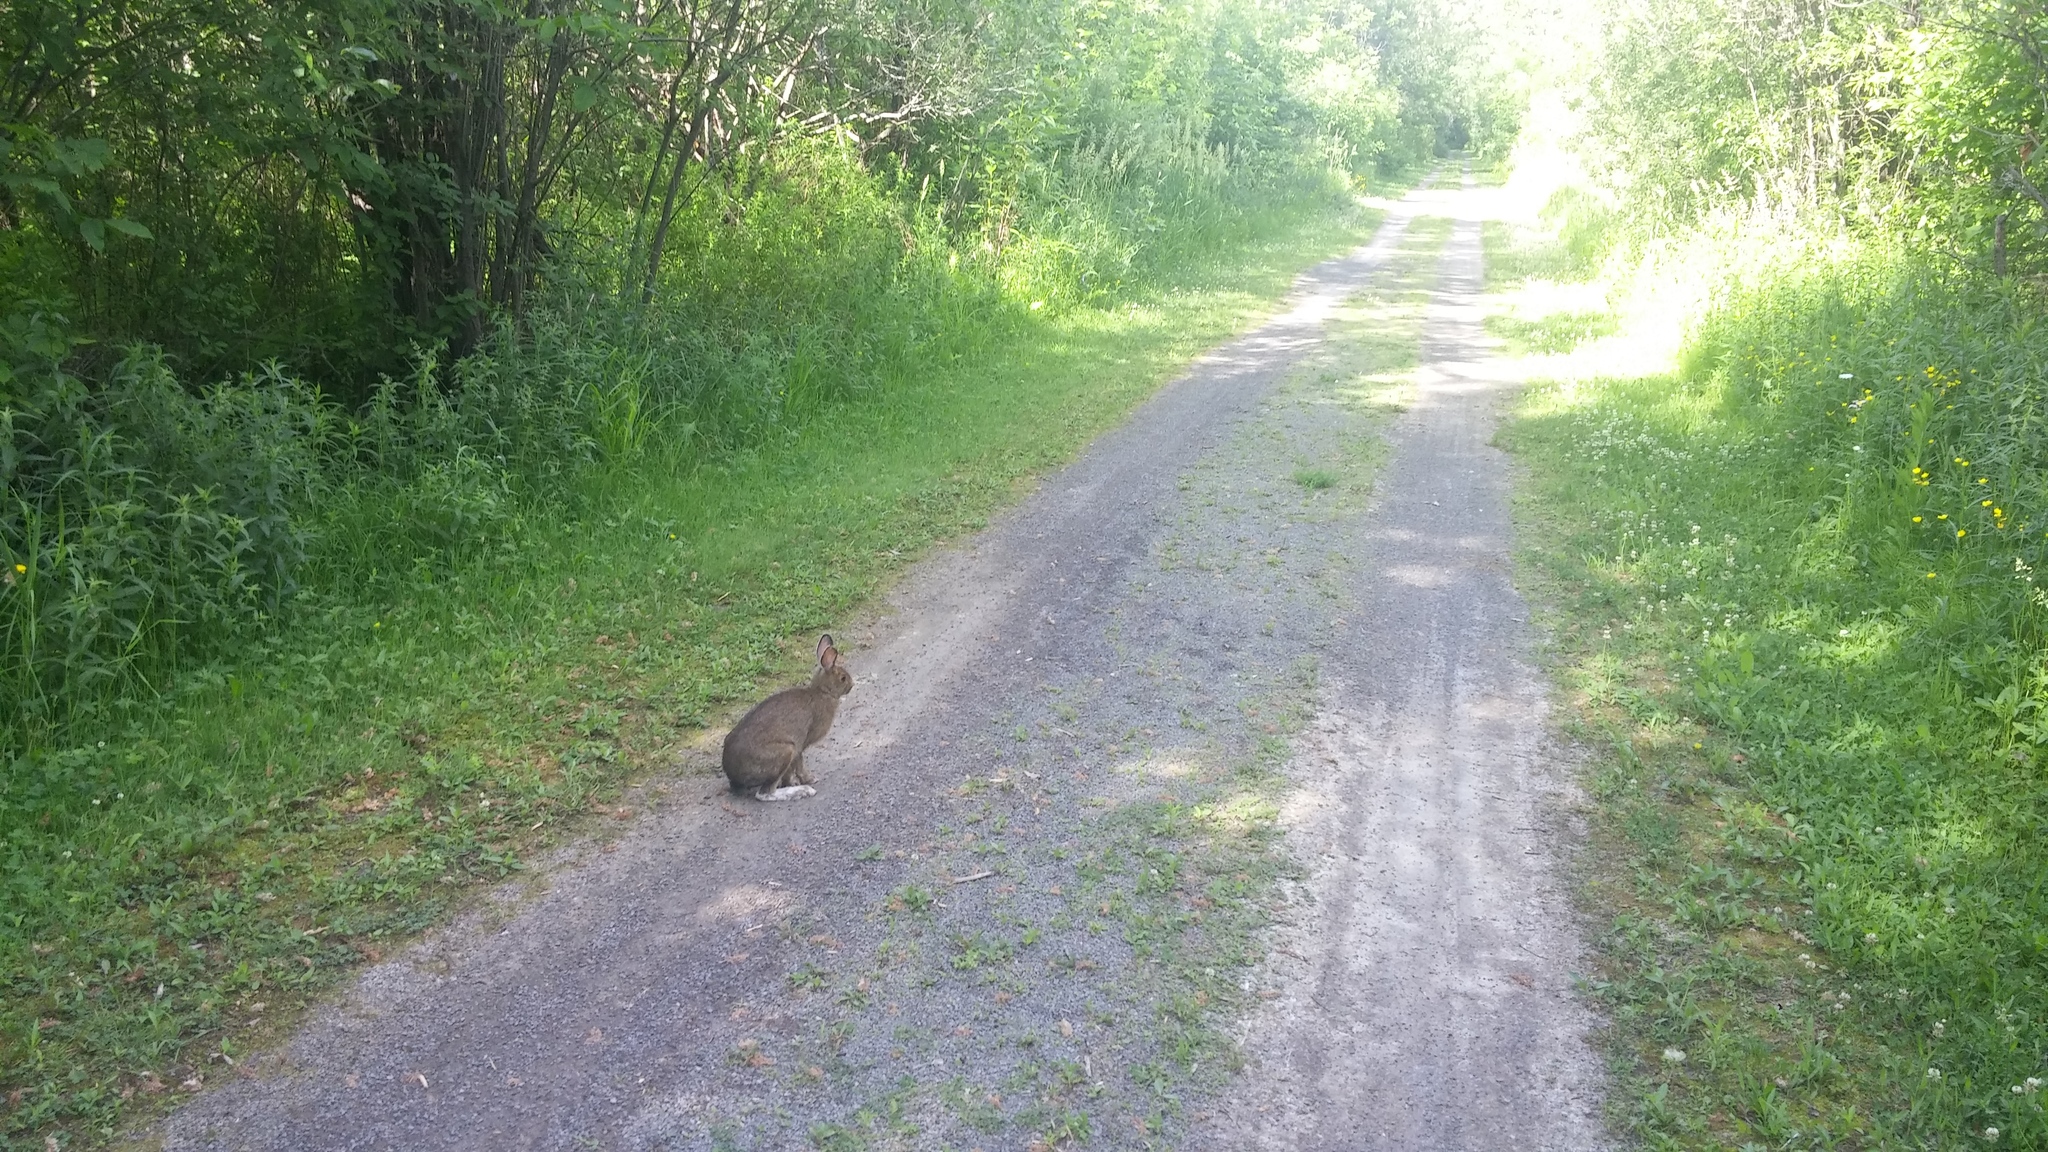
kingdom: Animalia
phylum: Chordata
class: Mammalia
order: Lagomorpha
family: Leporidae
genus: Lepus
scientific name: Lepus americanus
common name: Snowshoe hare
